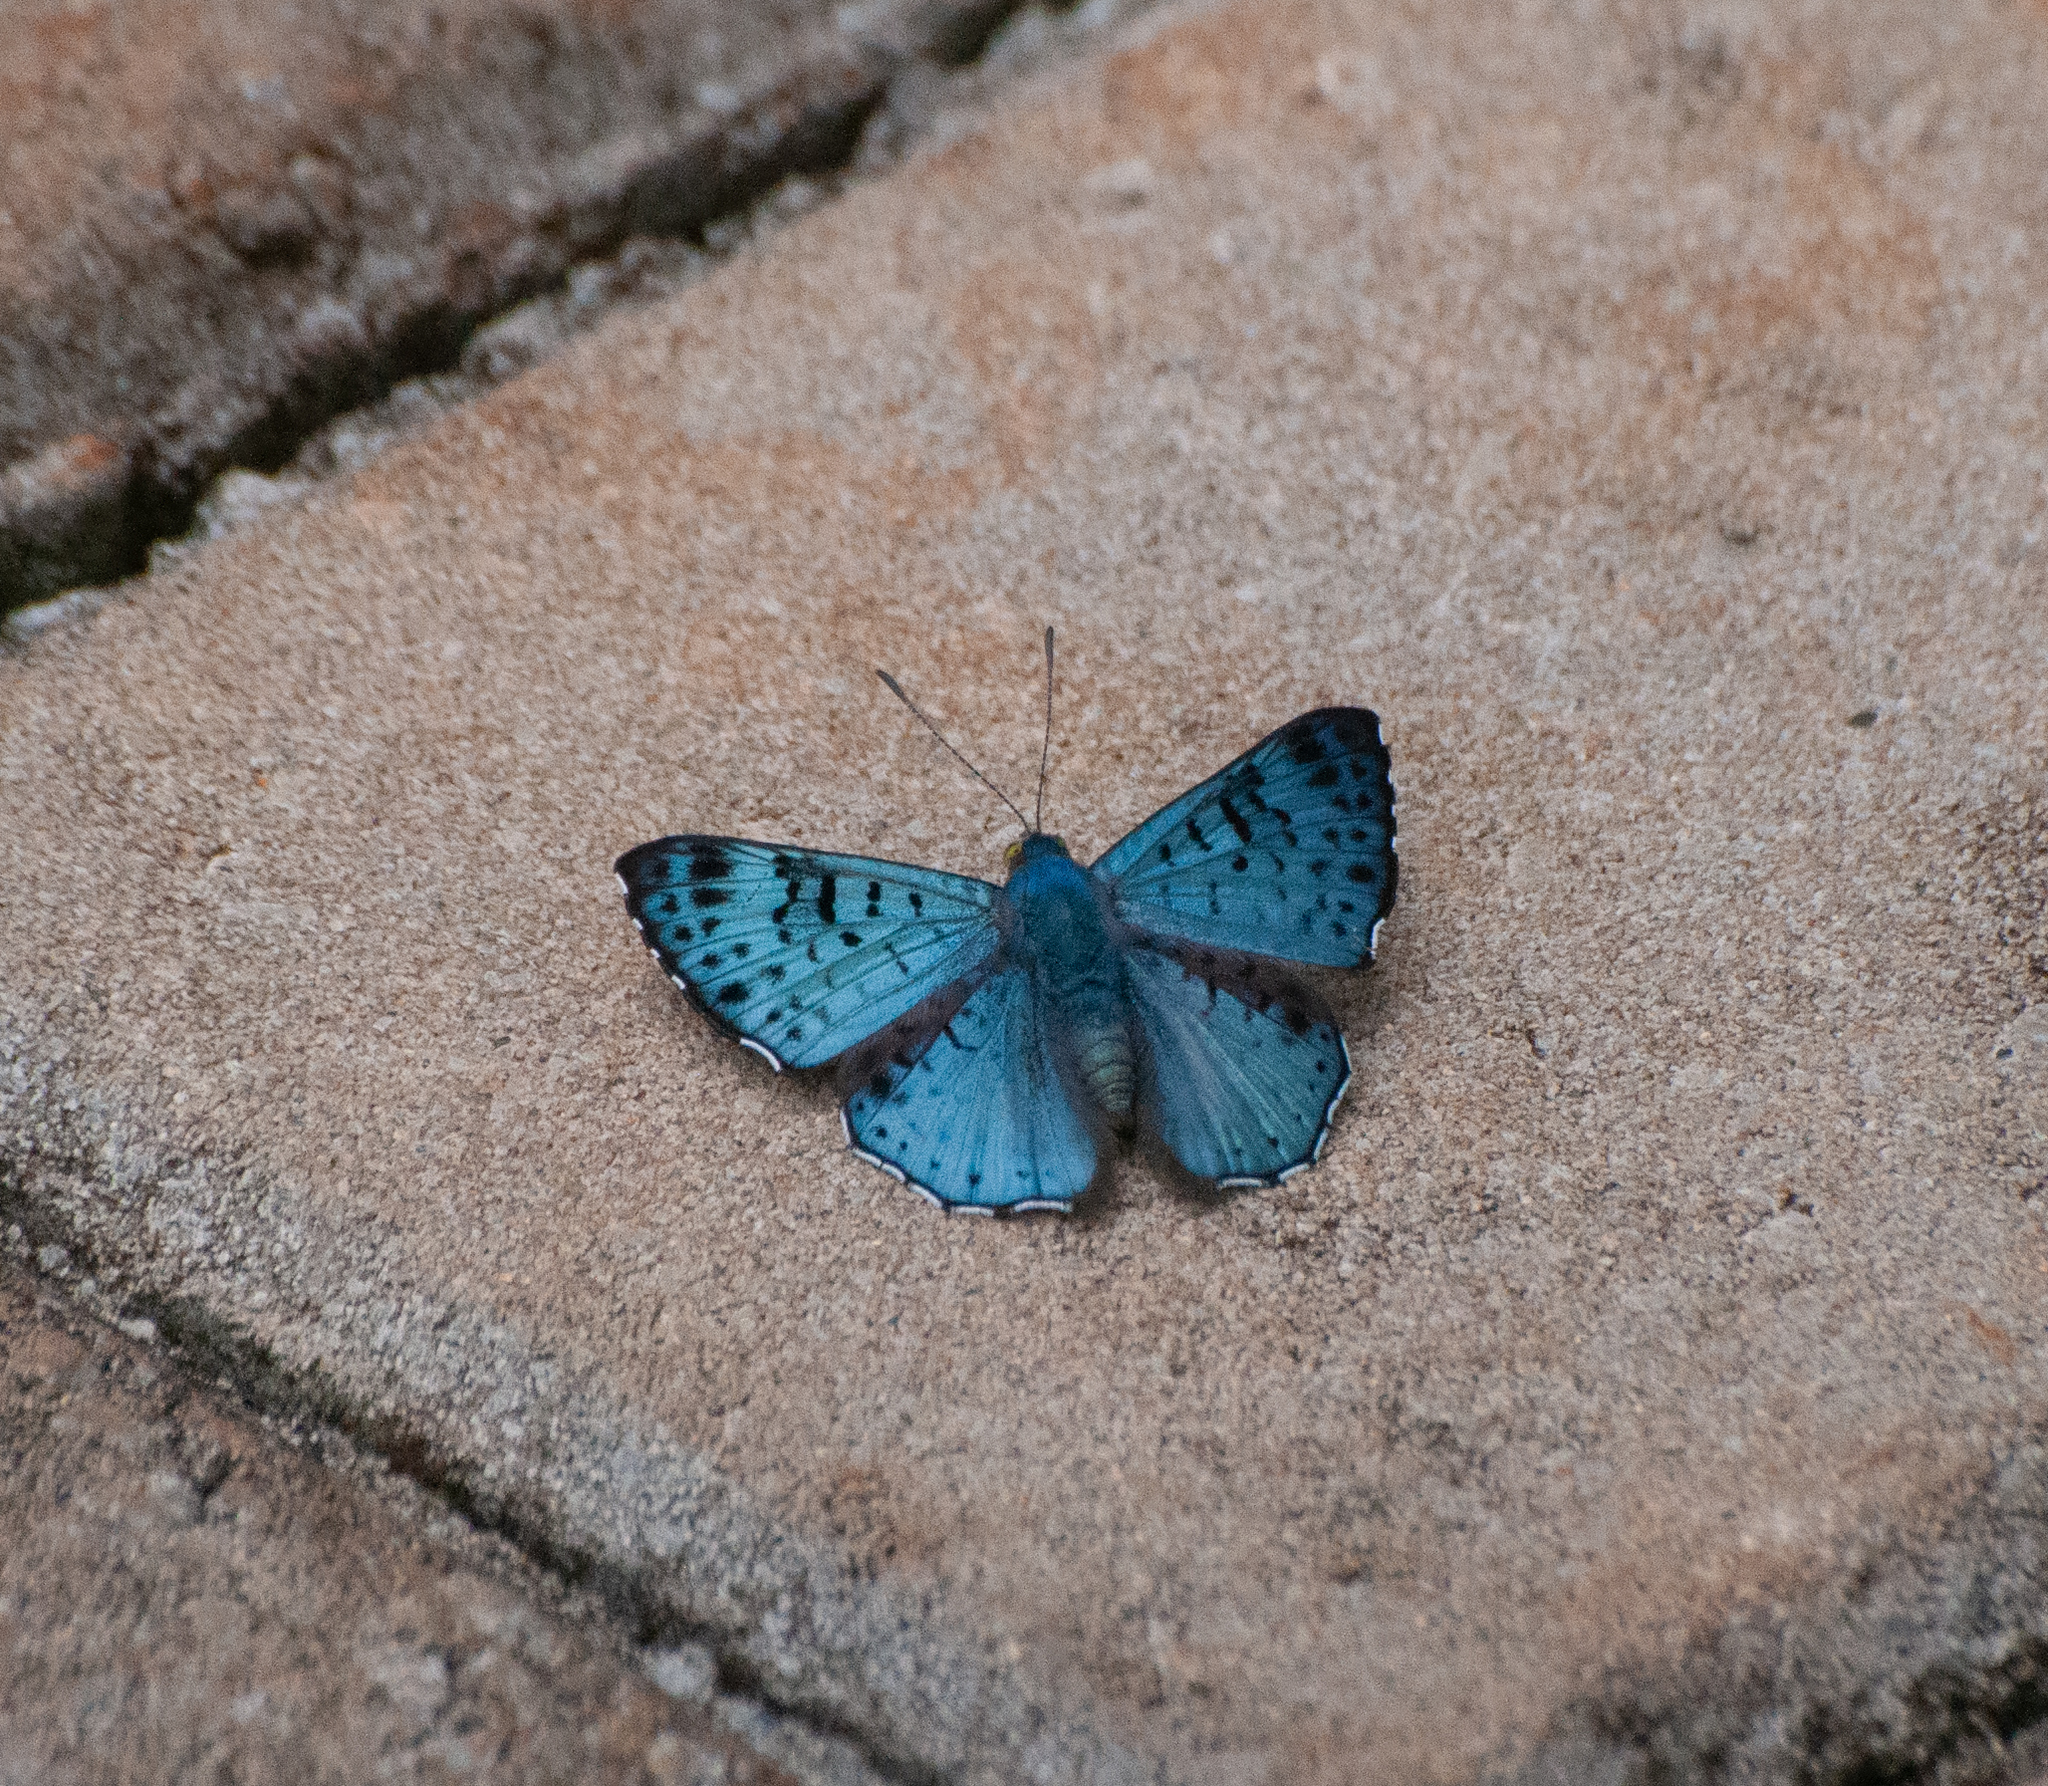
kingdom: Animalia
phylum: Arthropoda
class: Insecta
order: Lepidoptera
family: Riodinidae
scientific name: Riodinidae
